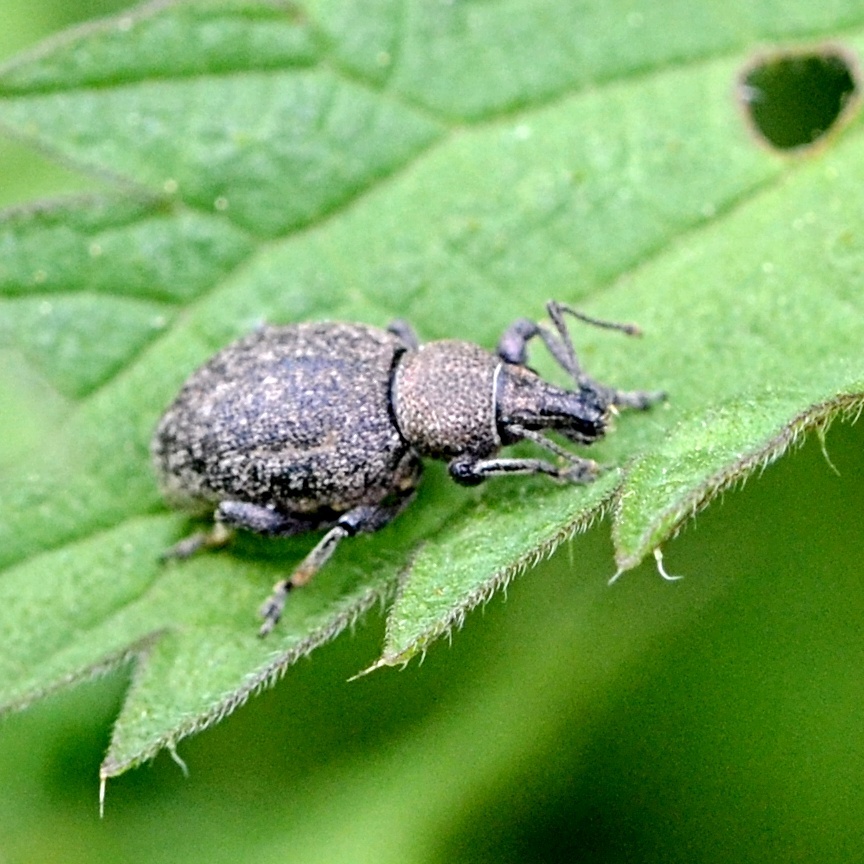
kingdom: Animalia
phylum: Arthropoda
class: Insecta
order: Coleoptera
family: Curculionidae
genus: Otiorhynchus
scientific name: Otiorhynchus ligustici
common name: Weevil
